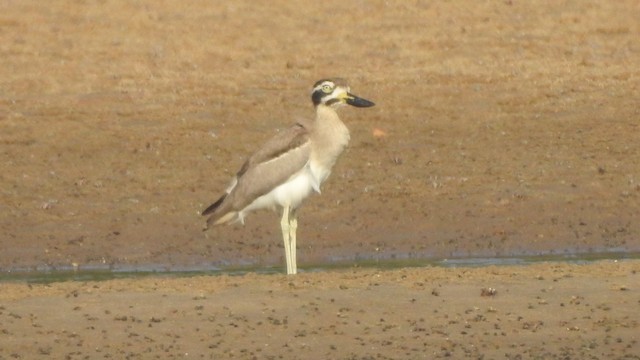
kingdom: Animalia
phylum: Chordata
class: Aves
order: Charadriiformes
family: Burhinidae
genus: Esacus
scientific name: Esacus recurvirostris
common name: Great stone-curlew
